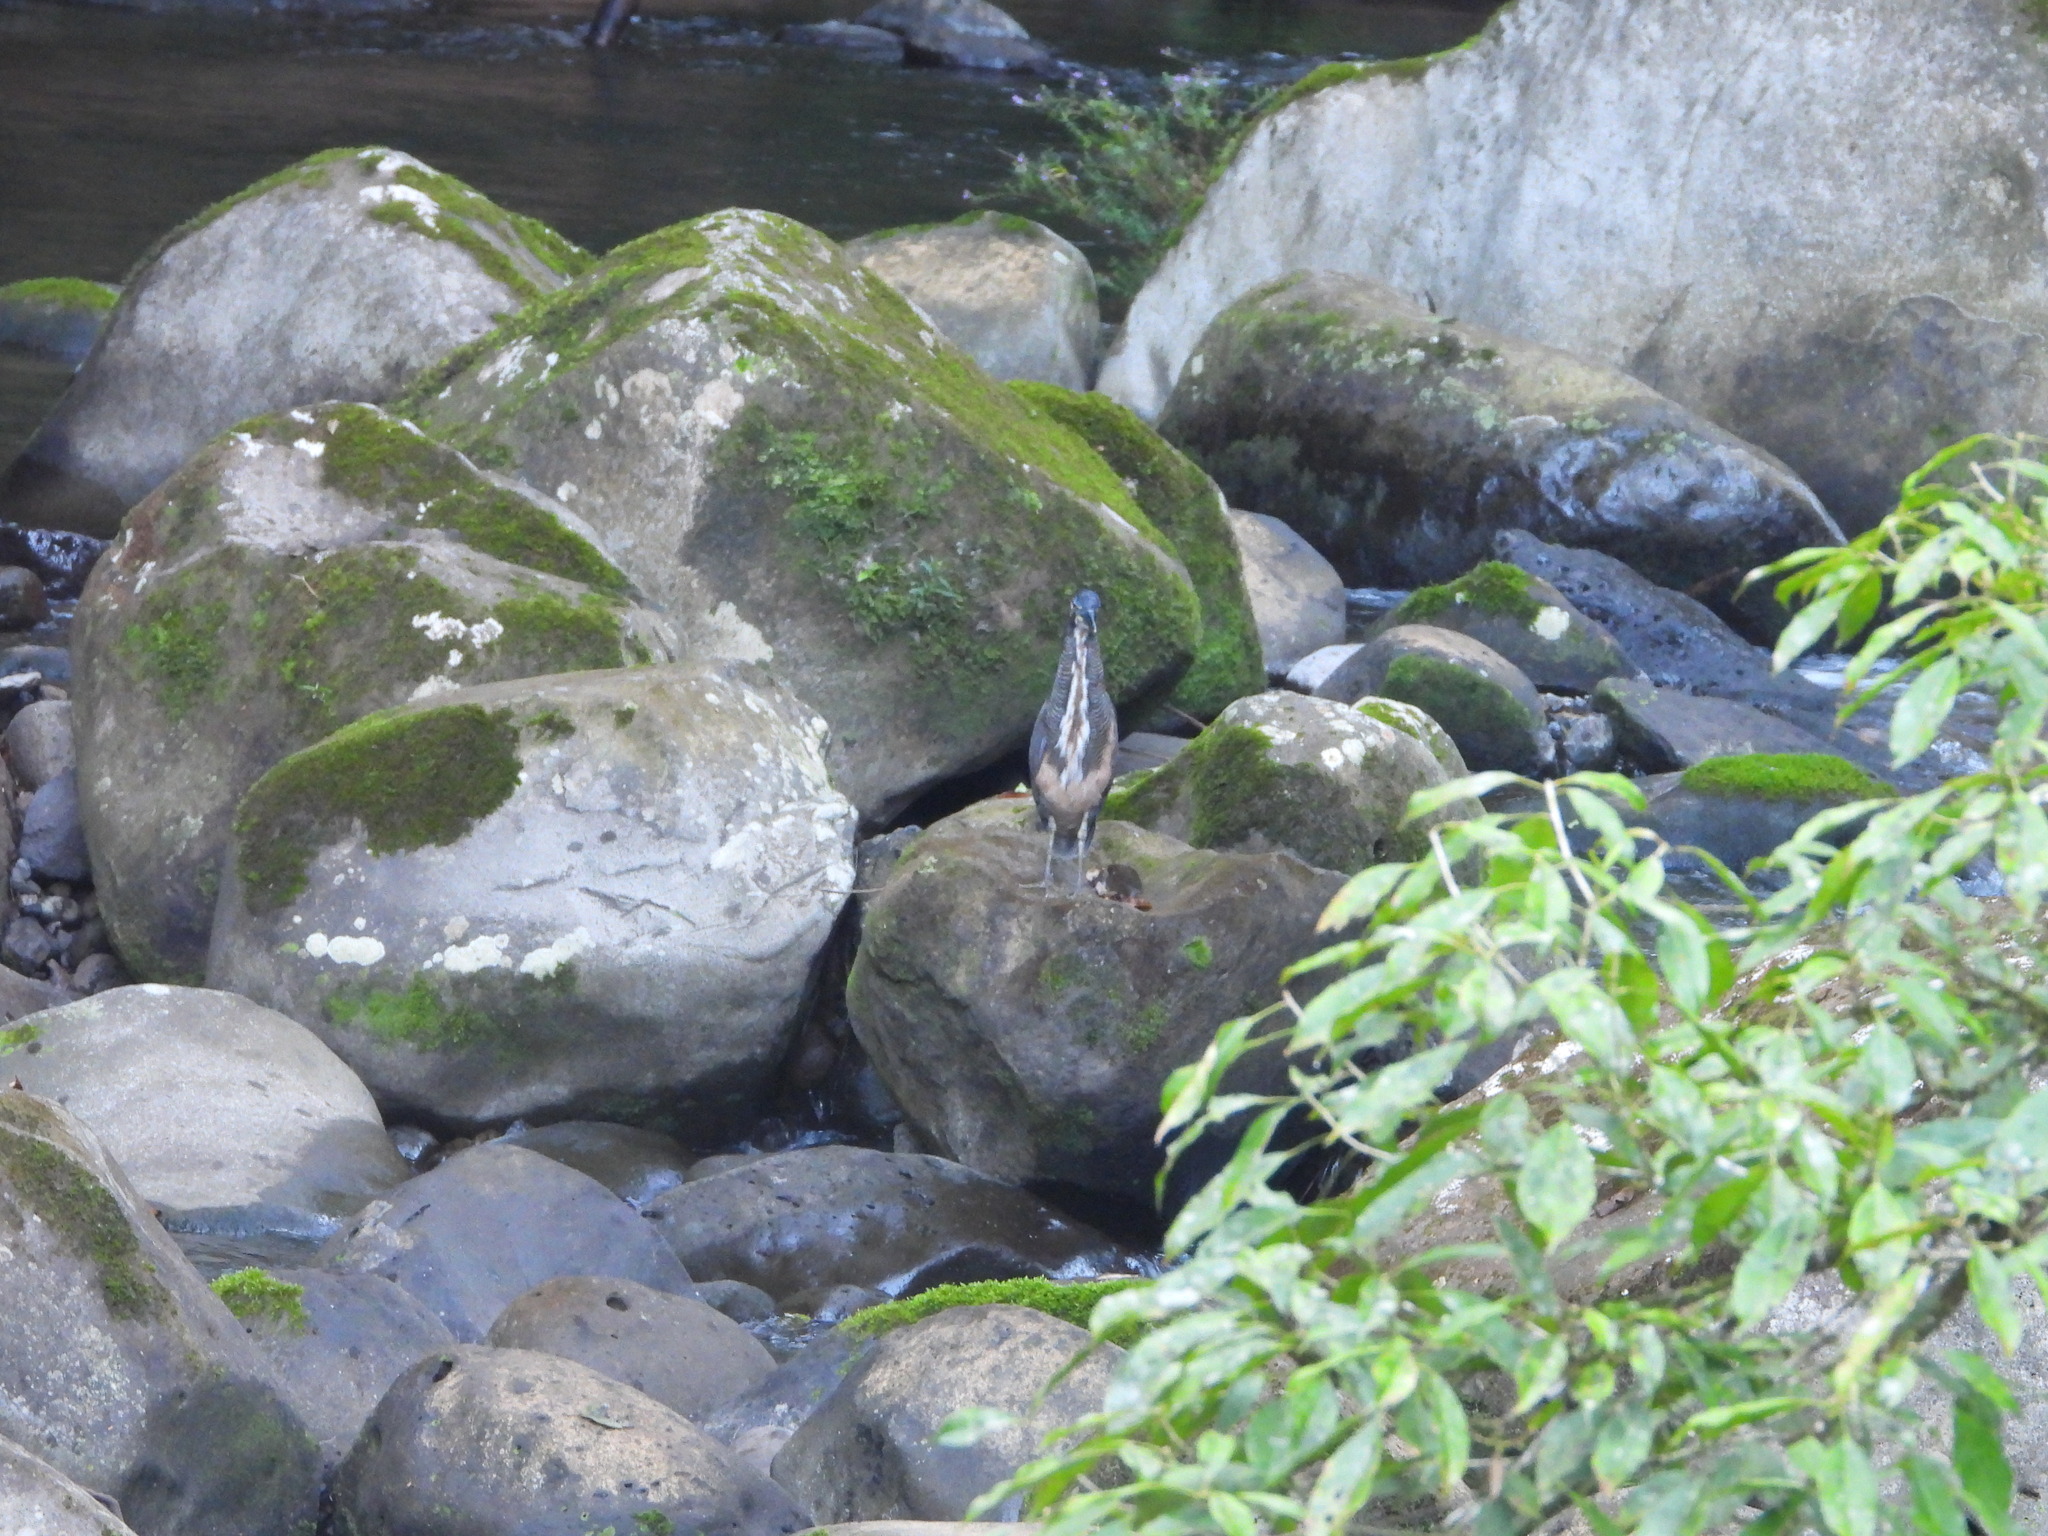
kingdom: Animalia
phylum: Chordata
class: Aves
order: Pelecaniformes
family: Ardeidae
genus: Tigrisoma
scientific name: Tigrisoma fasciatum
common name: Fasciated tiger-heron
